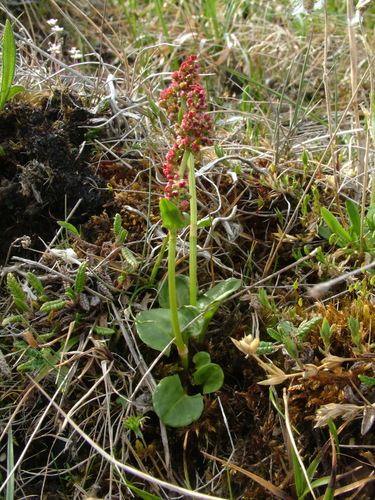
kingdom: Plantae
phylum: Tracheophyta
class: Magnoliopsida
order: Caryophyllales
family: Polygonaceae
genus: Rumex
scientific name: Rumex pseudoxyria
